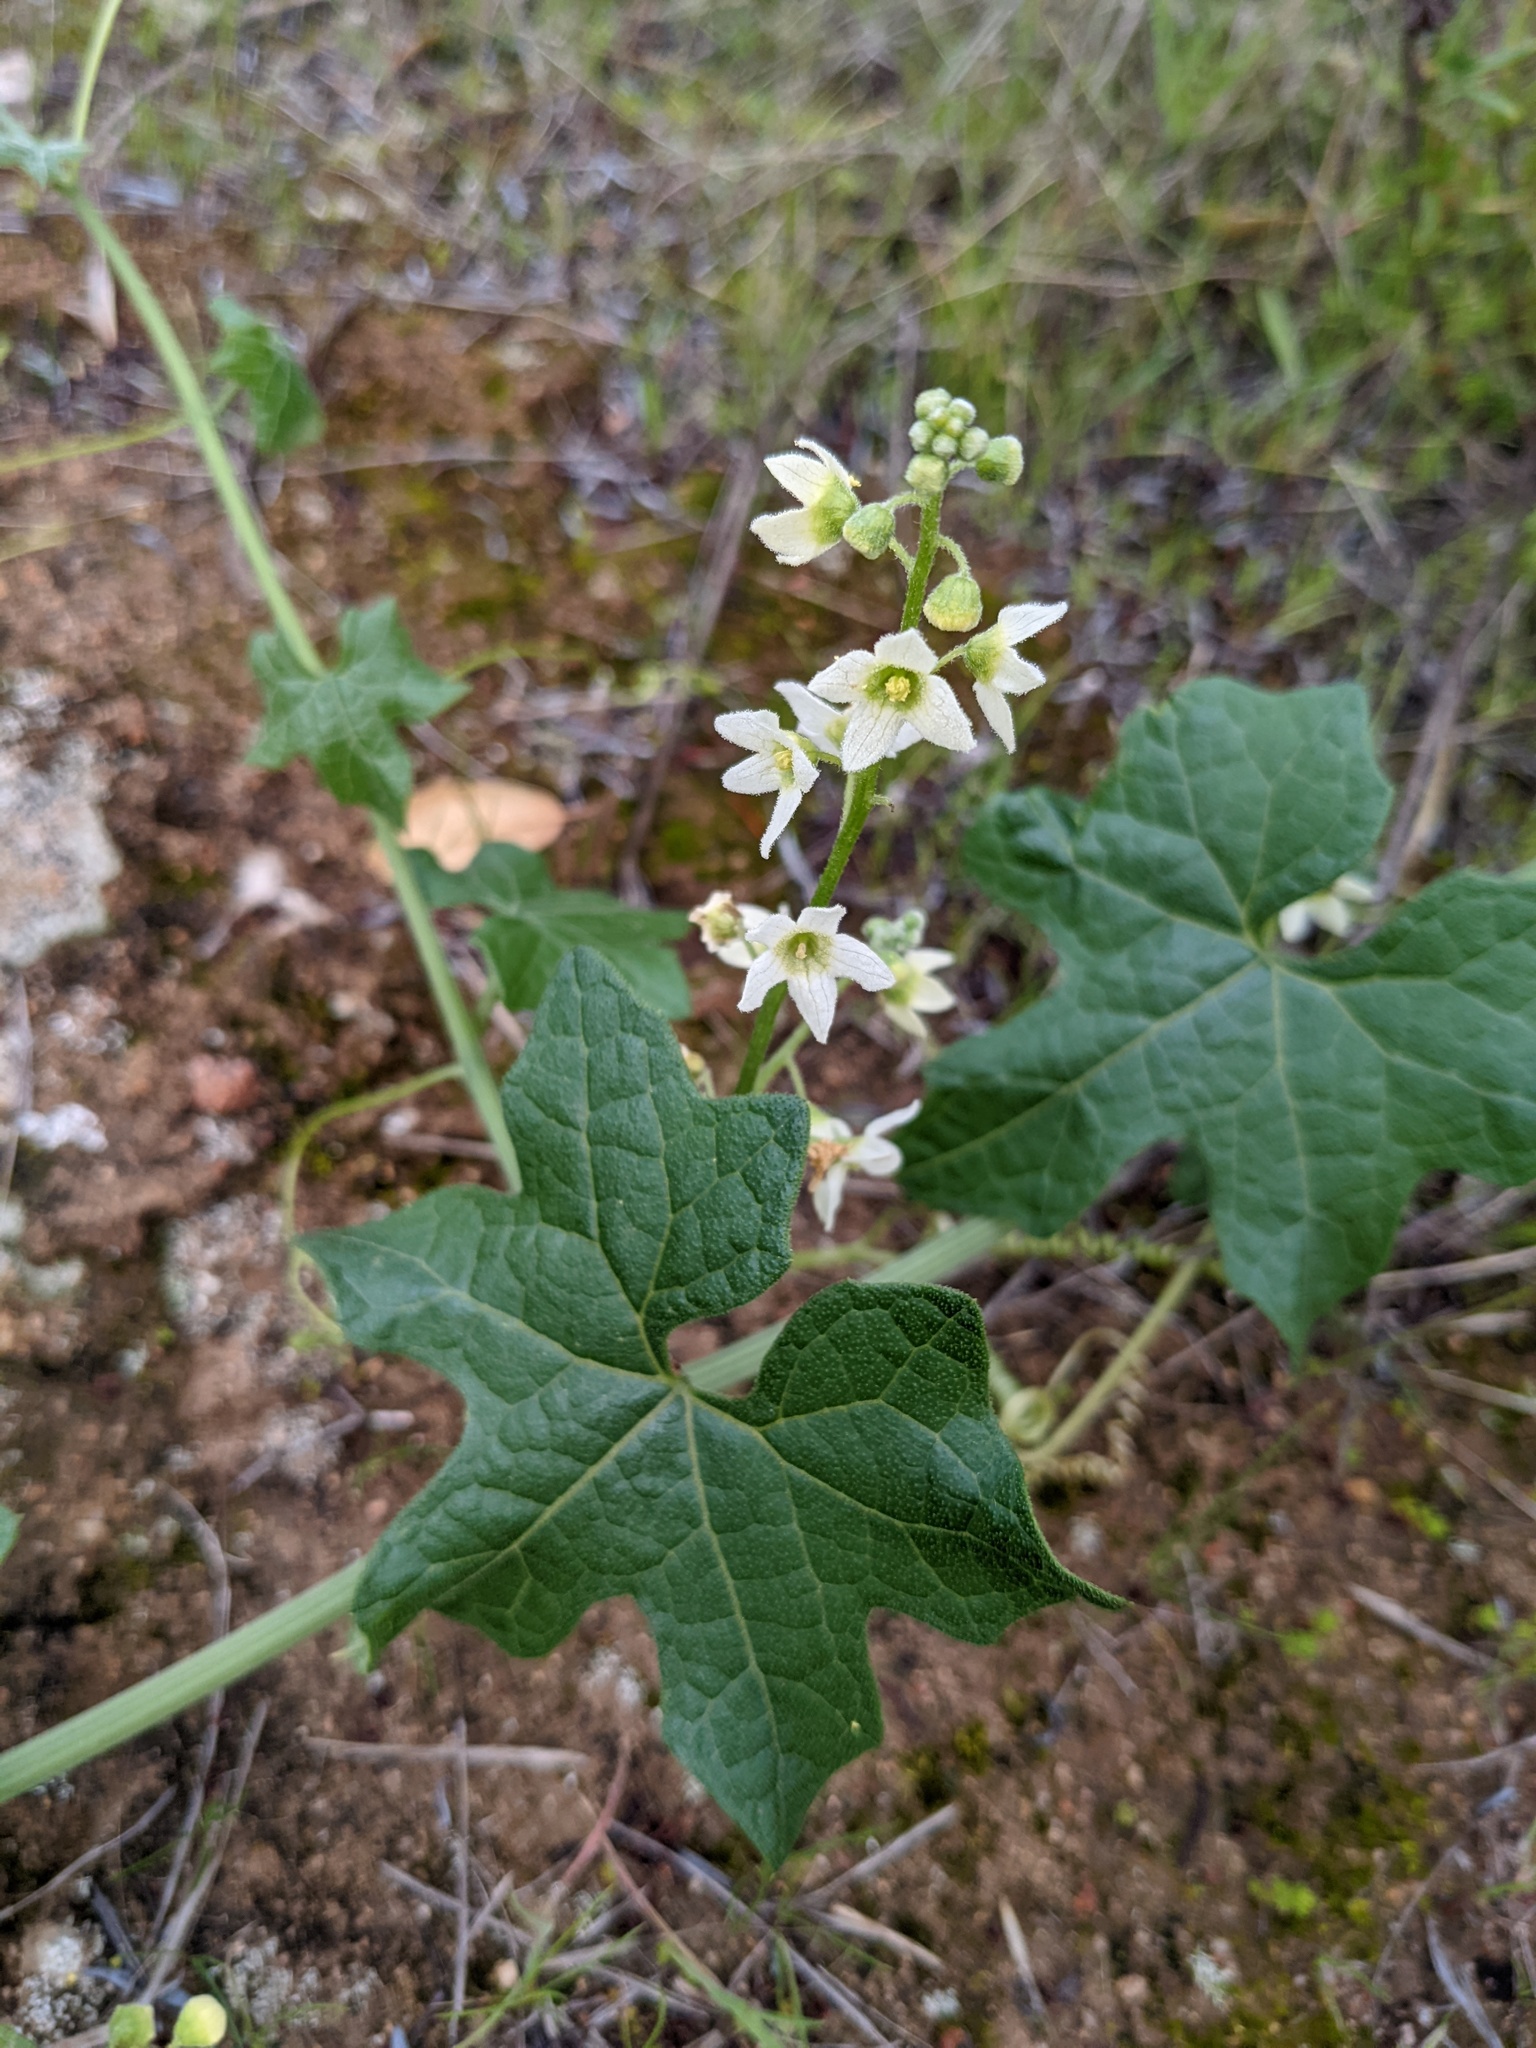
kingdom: Plantae
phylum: Tracheophyta
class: Magnoliopsida
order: Cucurbitales
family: Cucurbitaceae
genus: Marah
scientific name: Marah macrocarpa
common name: Cucamonga manroot
